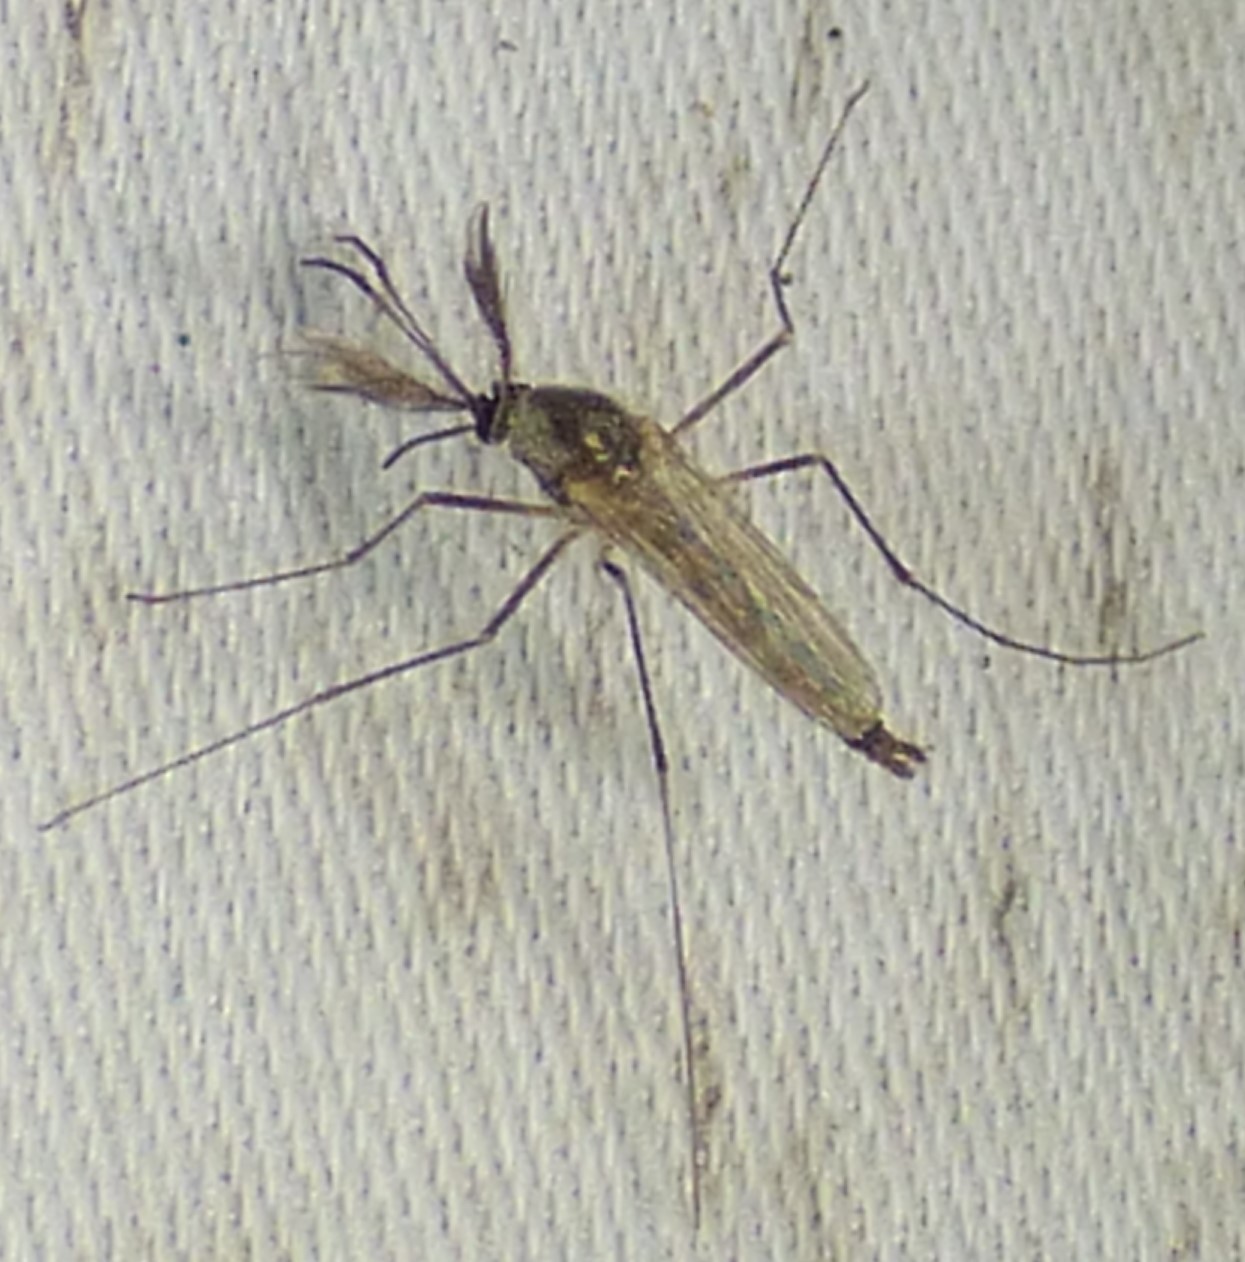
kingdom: Animalia
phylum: Arthropoda
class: Insecta
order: Diptera
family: Culicidae
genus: Aedes
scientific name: Aedes triseriatus
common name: Eastern treehole mosquito
